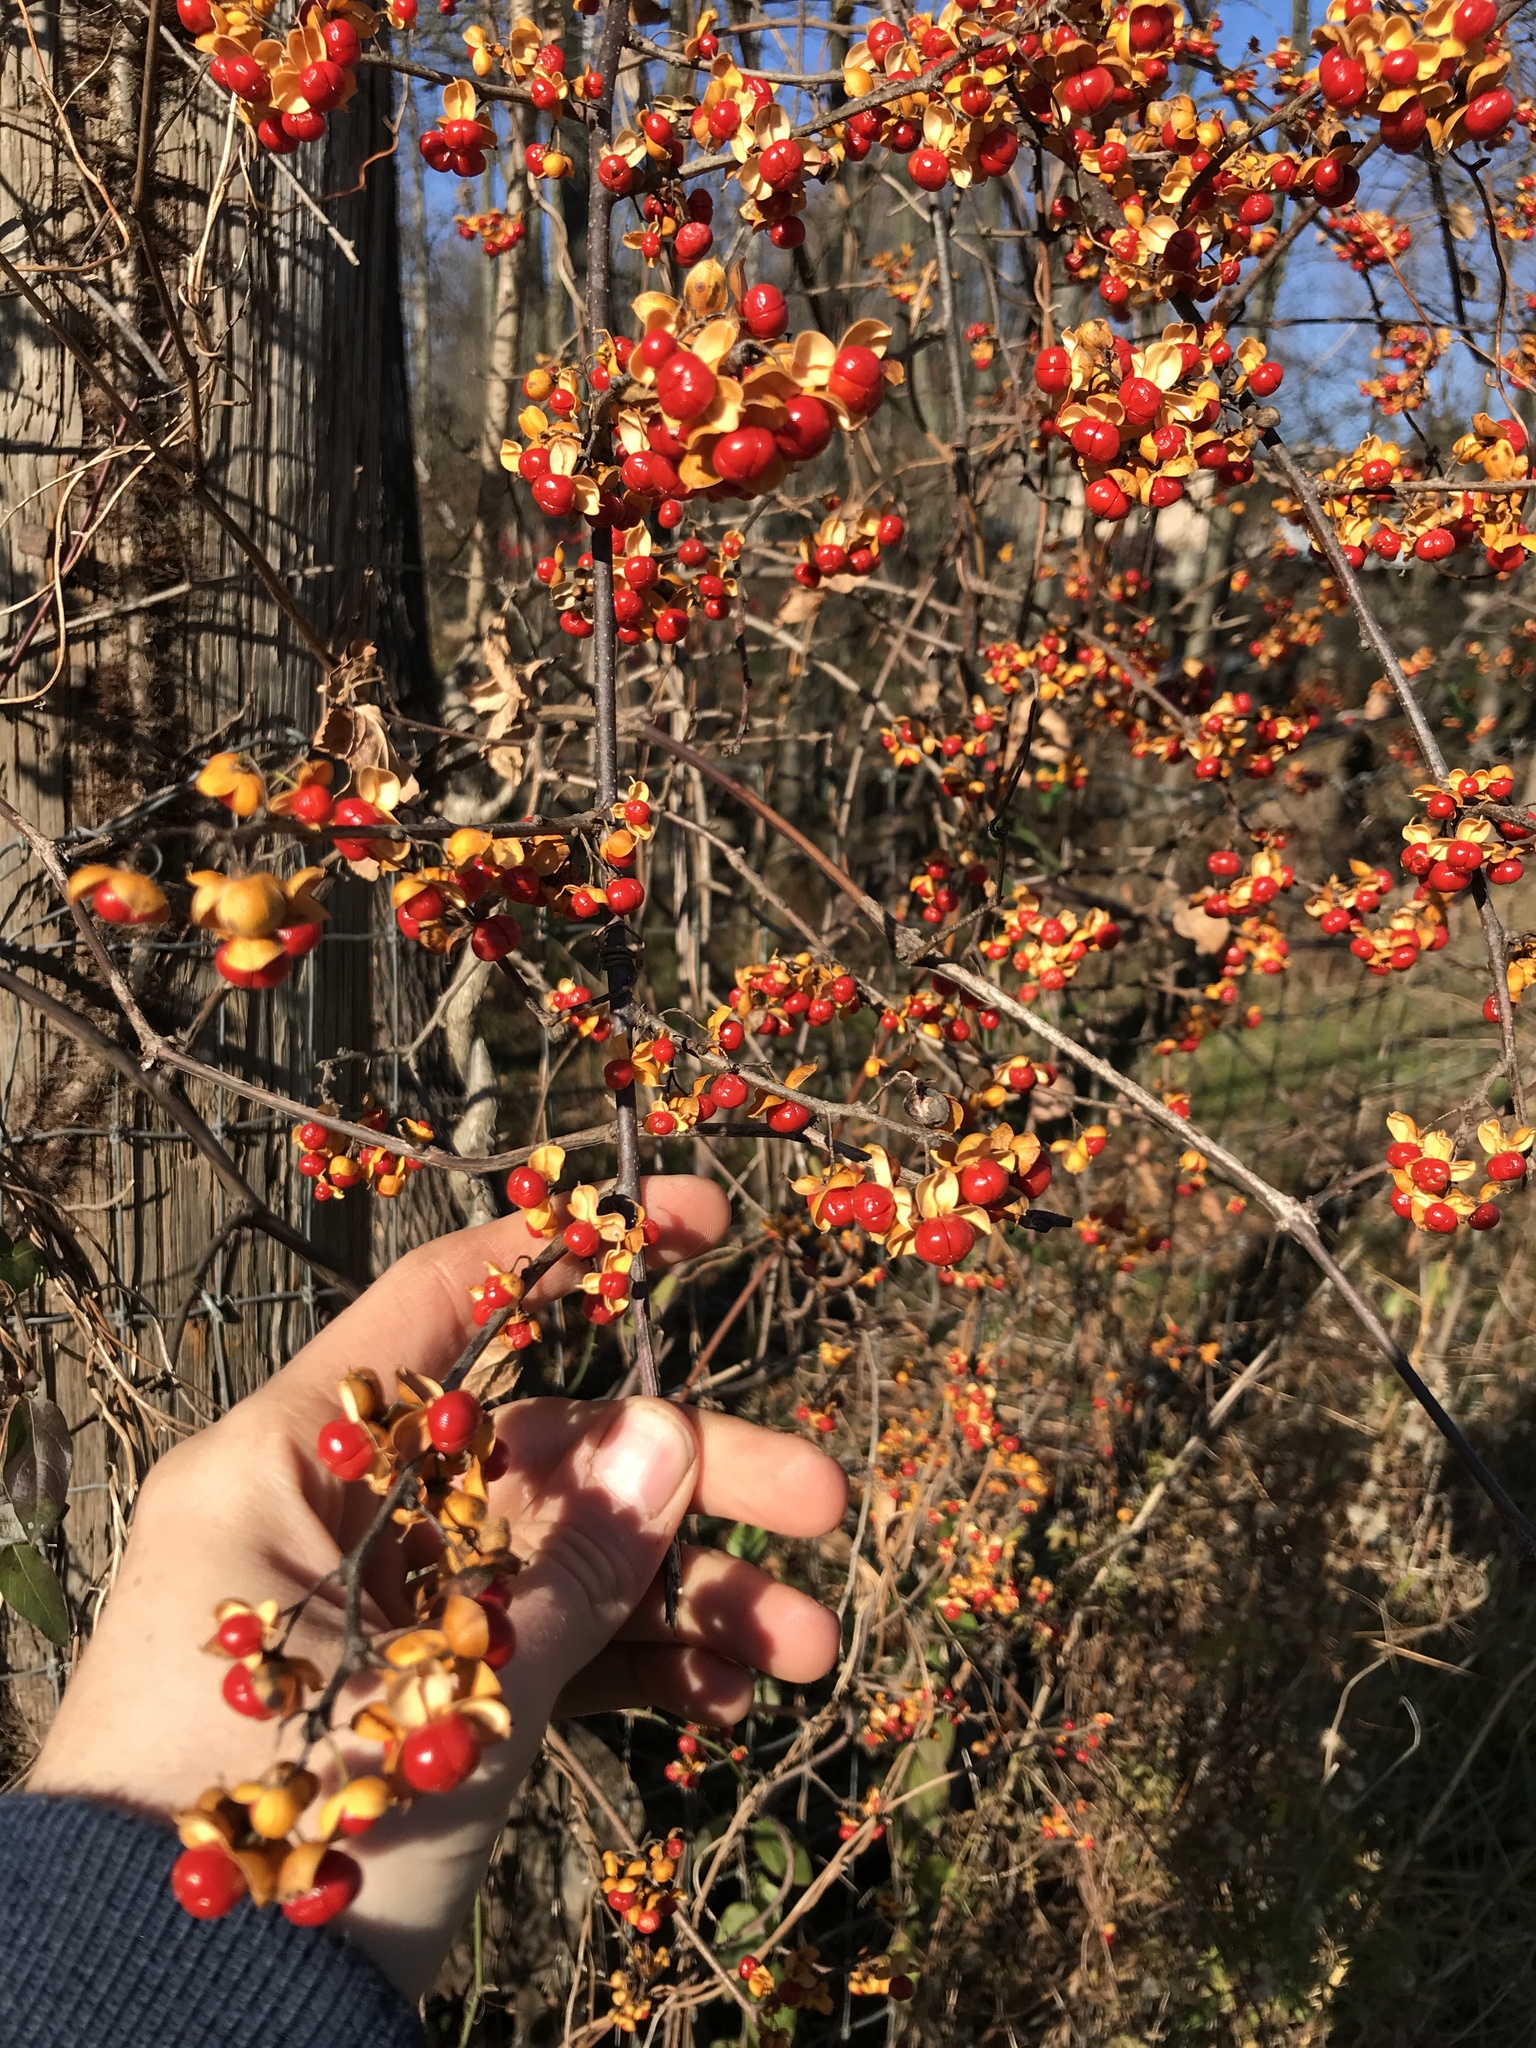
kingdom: Plantae
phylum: Tracheophyta
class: Magnoliopsida
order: Celastrales
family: Celastraceae
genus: Celastrus
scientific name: Celastrus orbiculatus
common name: Oriental bittersweet
